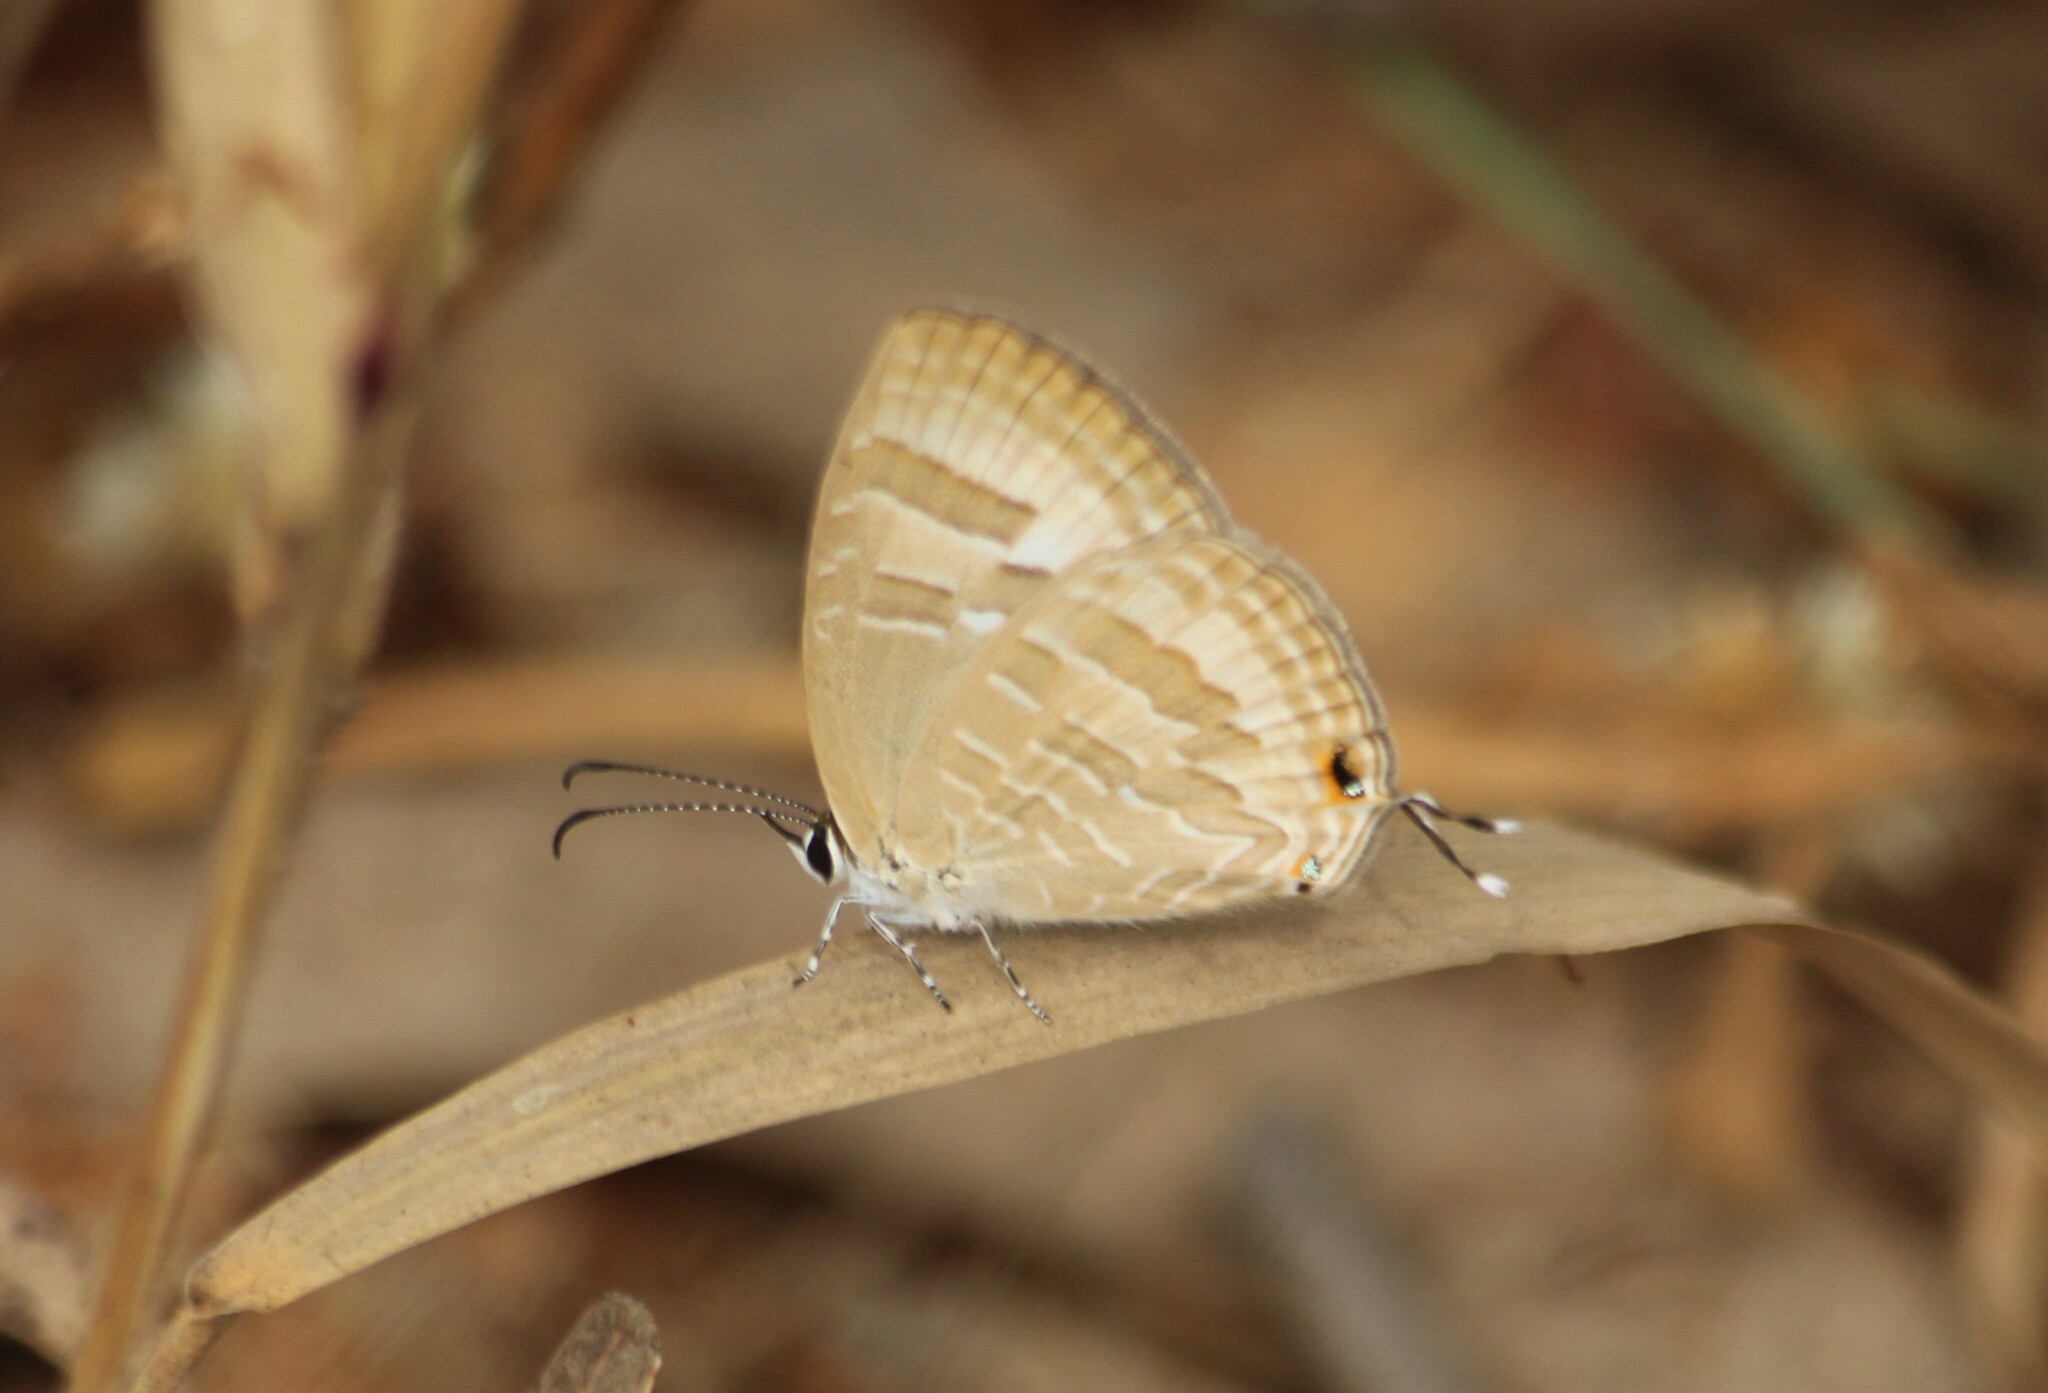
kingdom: Animalia
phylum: Arthropoda
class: Insecta
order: Lepidoptera
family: Lycaenidae
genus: Jamides
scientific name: Jamides celeno
